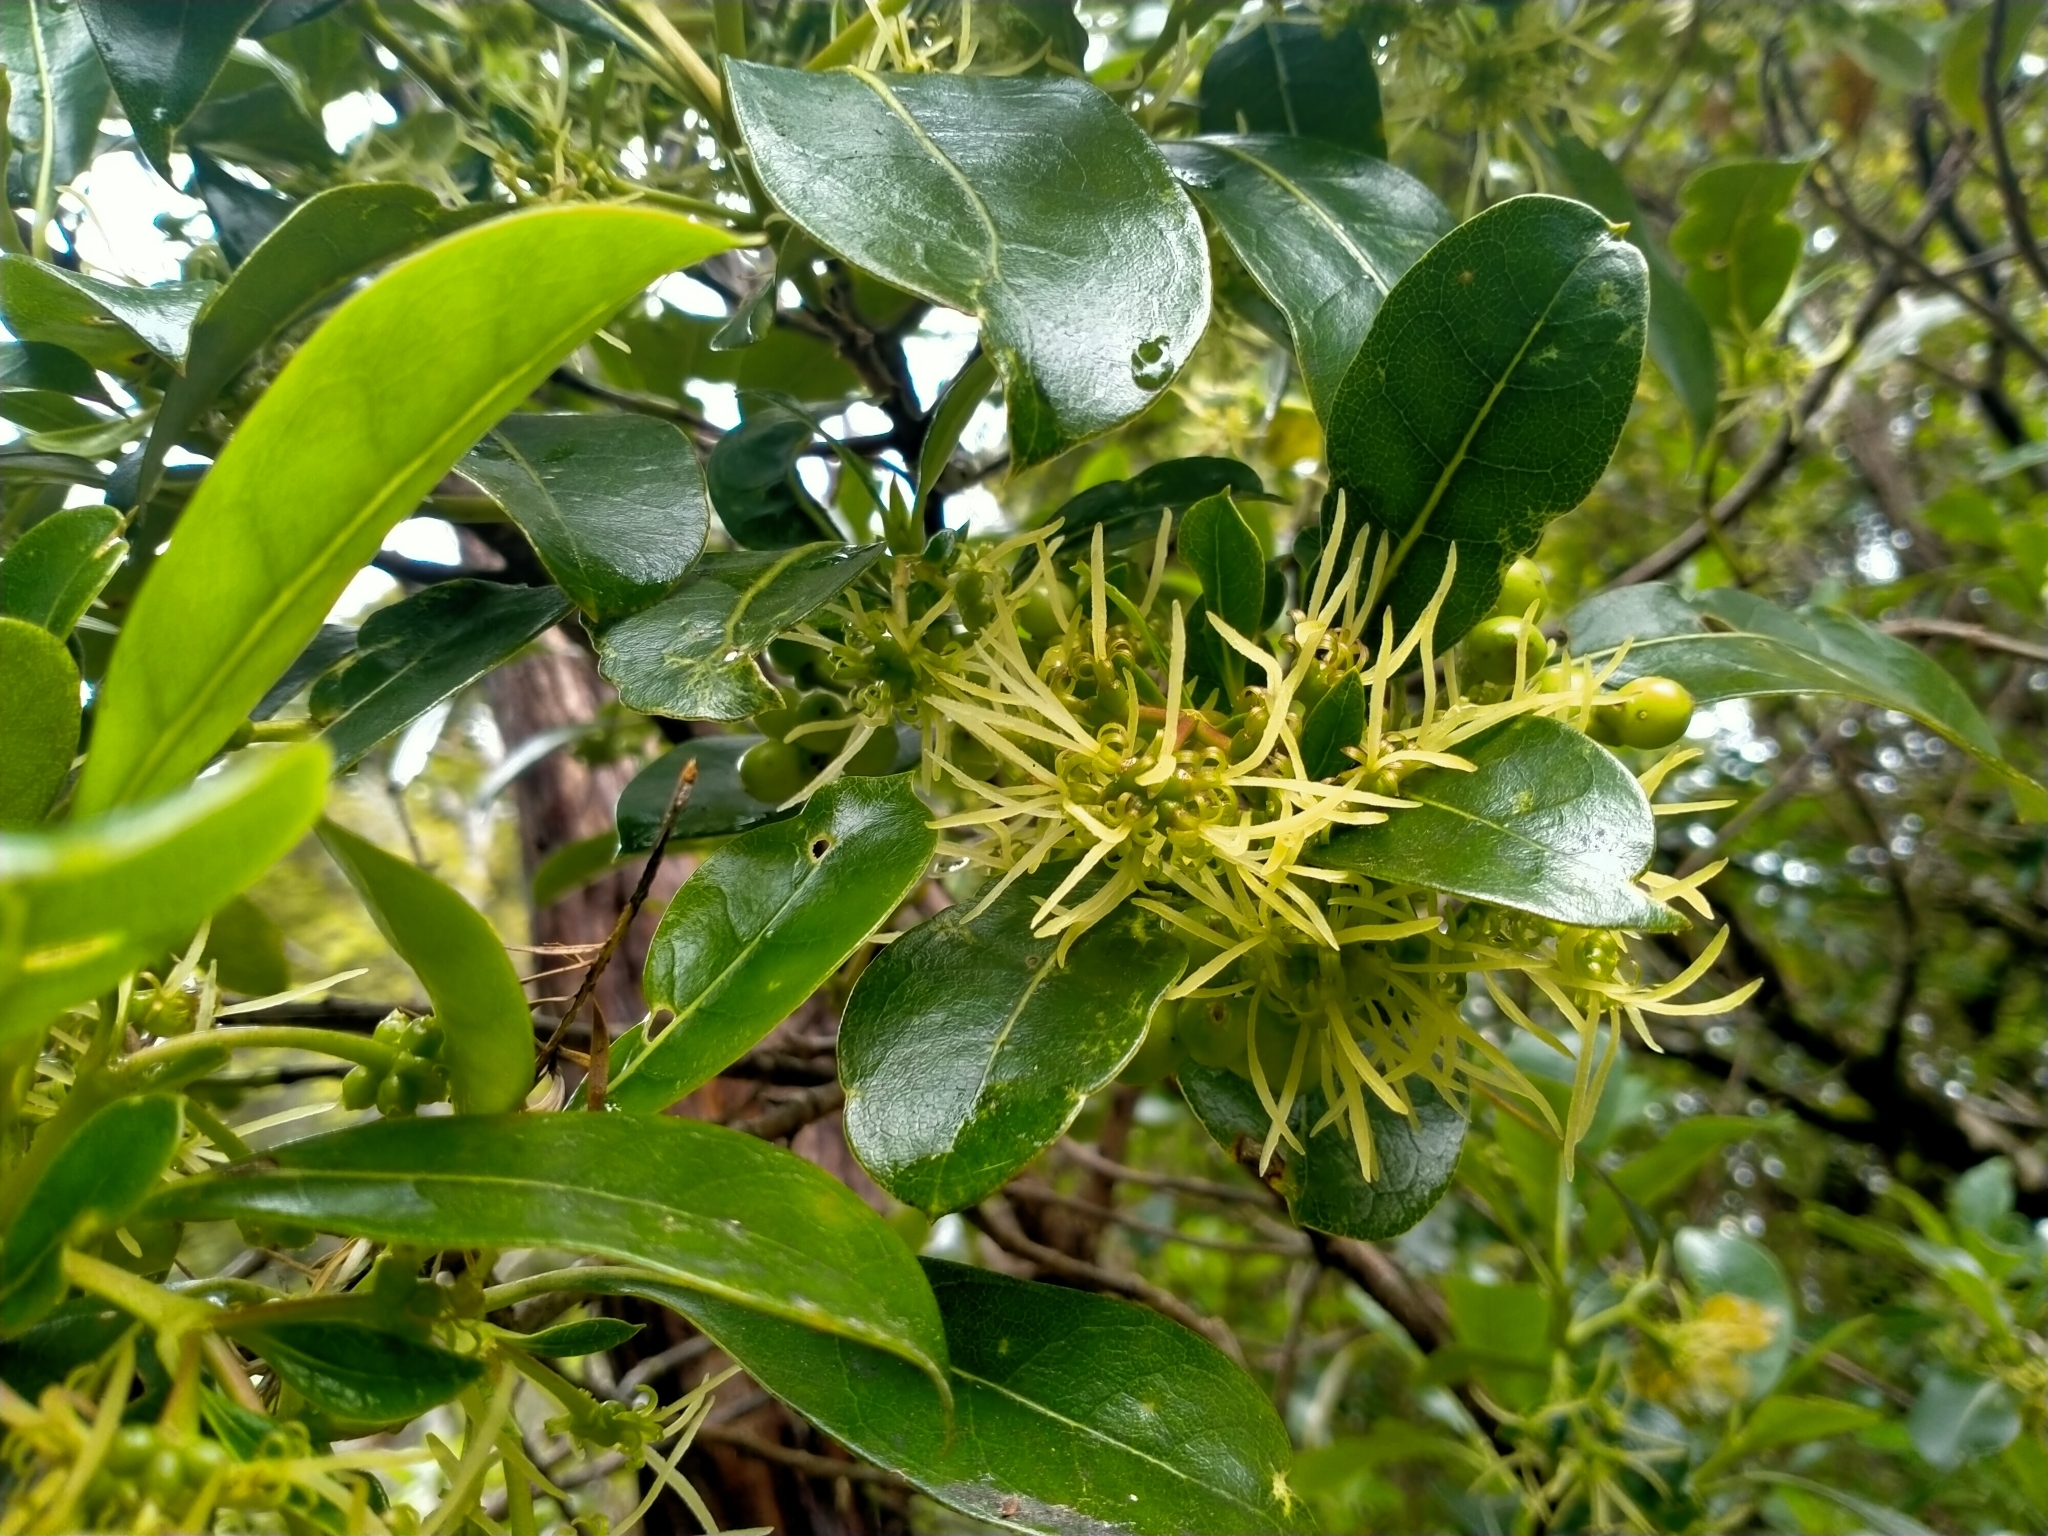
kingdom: Plantae
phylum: Tracheophyta
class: Magnoliopsida
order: Gentianales
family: Rubiaceae
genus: Coprosma
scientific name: Coprosma lucida
